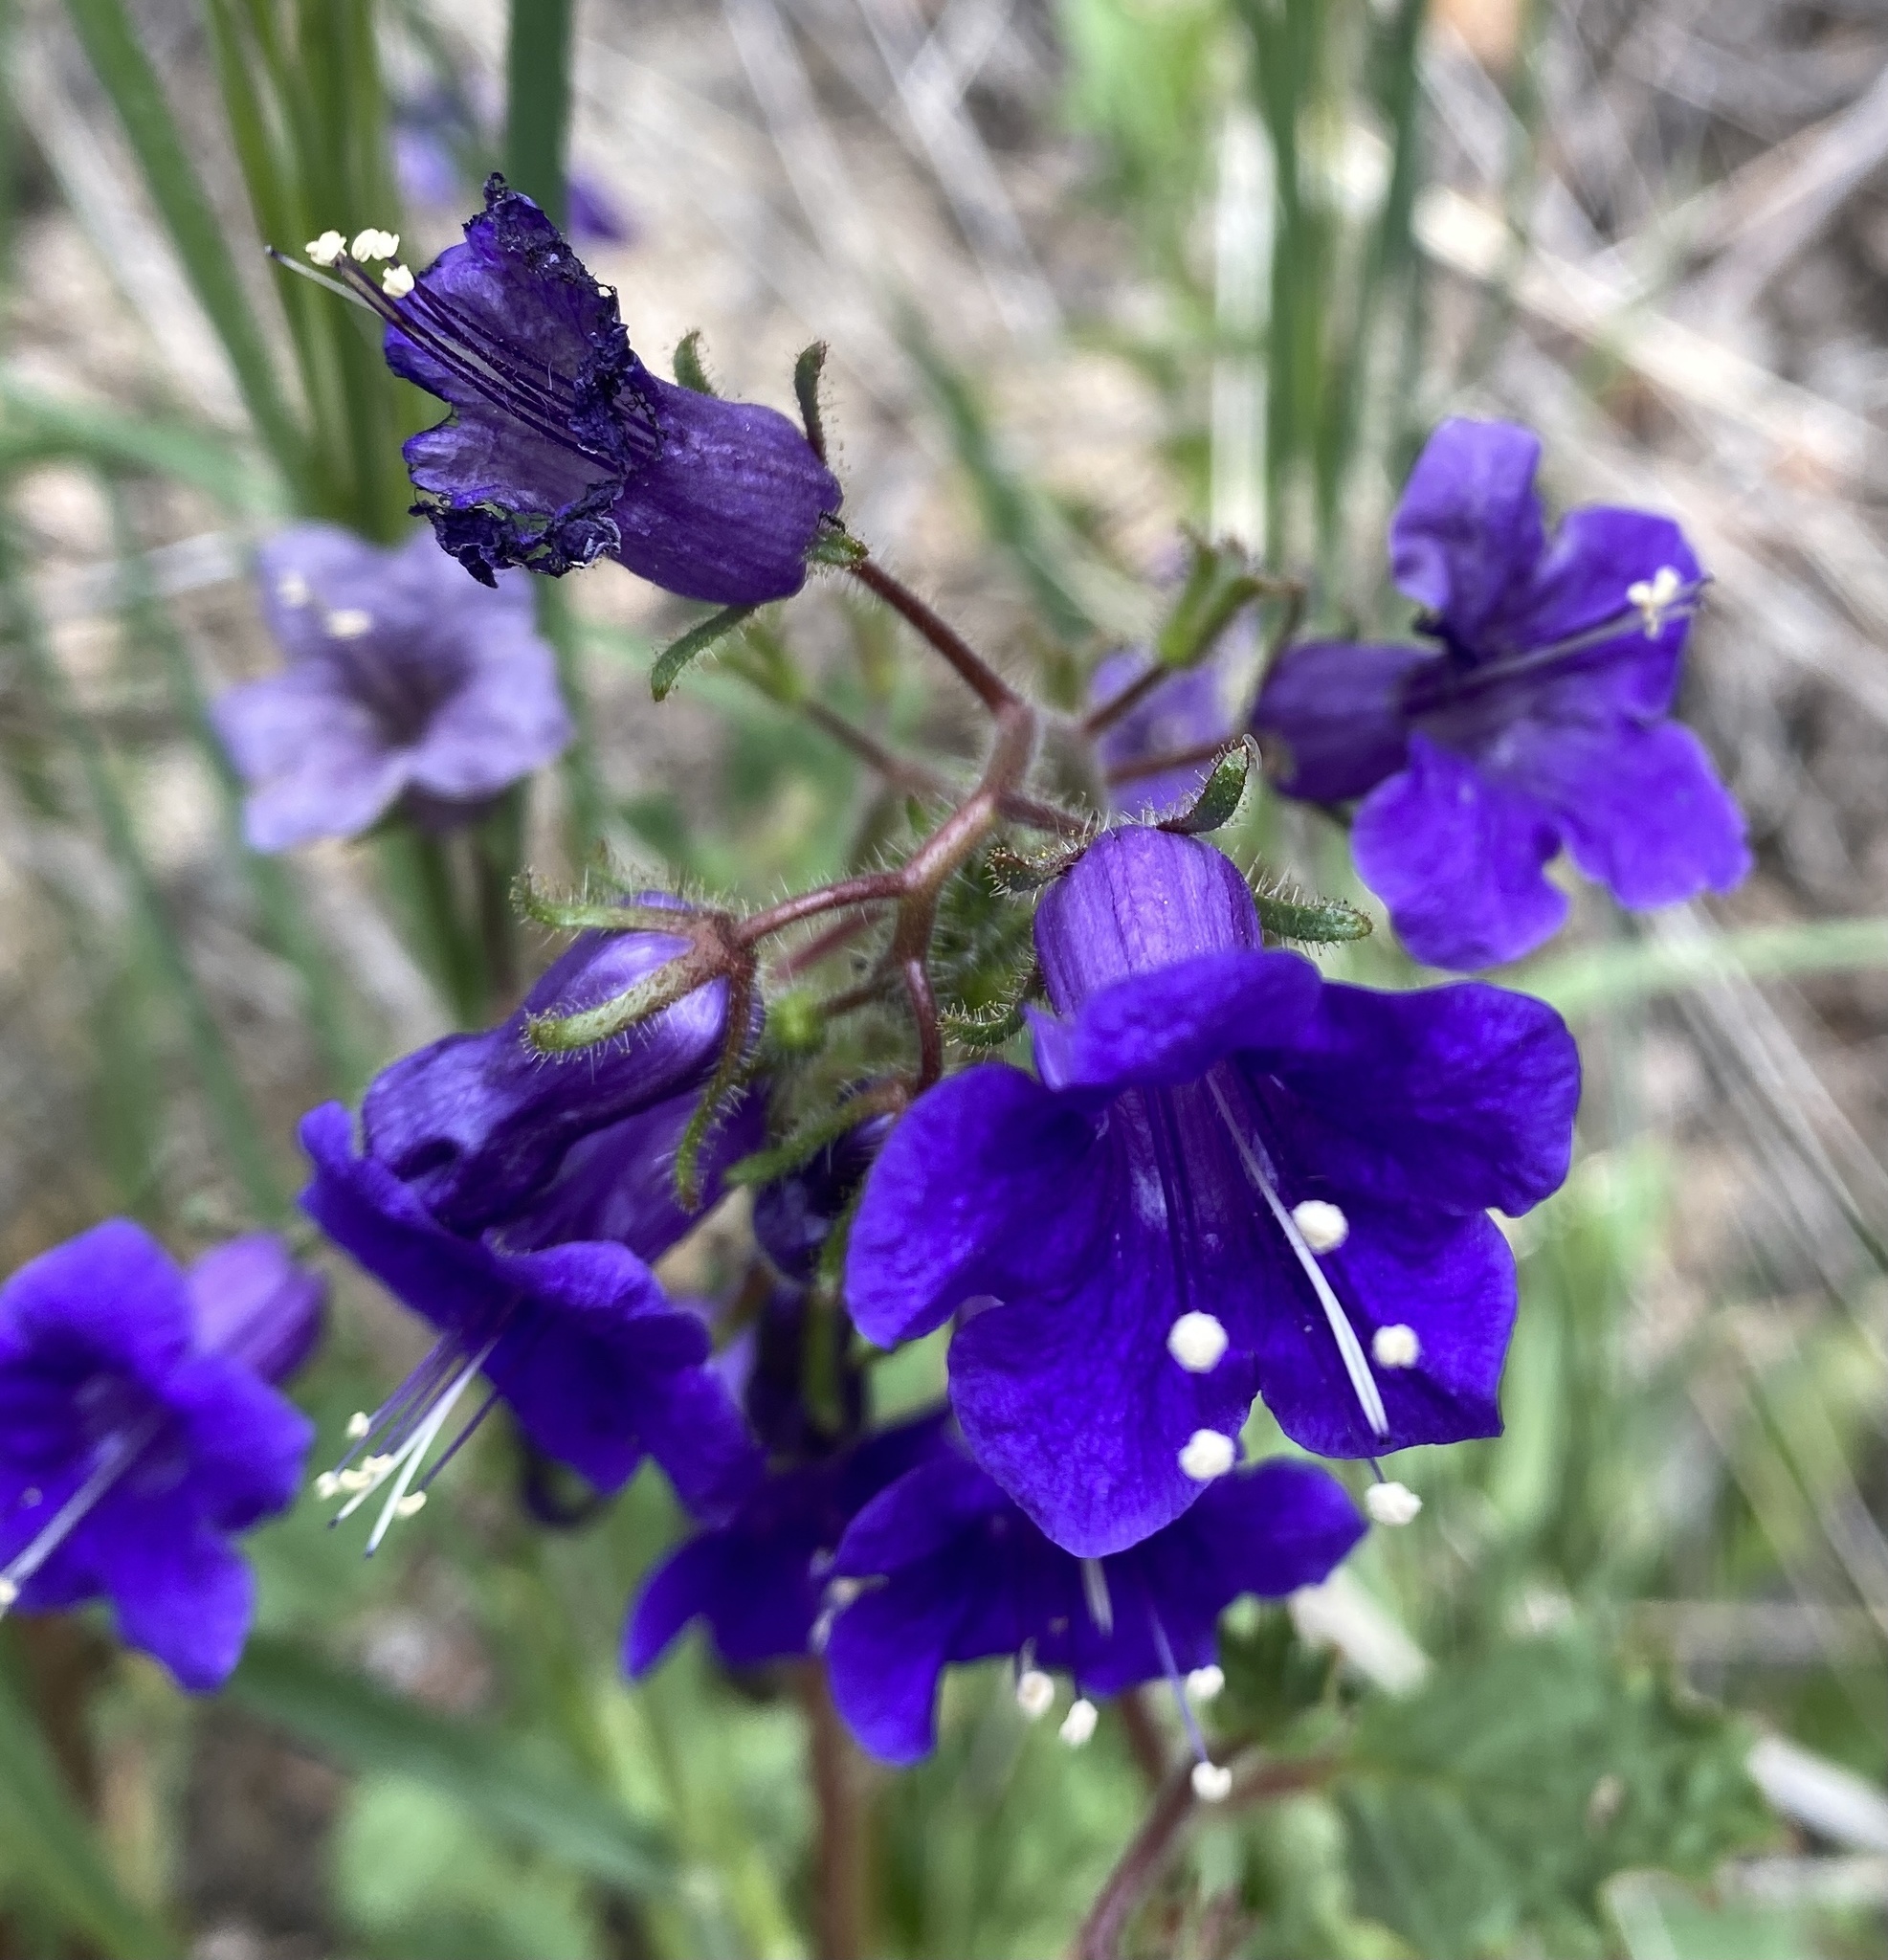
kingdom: Plantae
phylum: Tracheophyta
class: Magnoliopsida
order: Boraginales
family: Hydrophyllaceae
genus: Phacelia
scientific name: Phacelia minor
